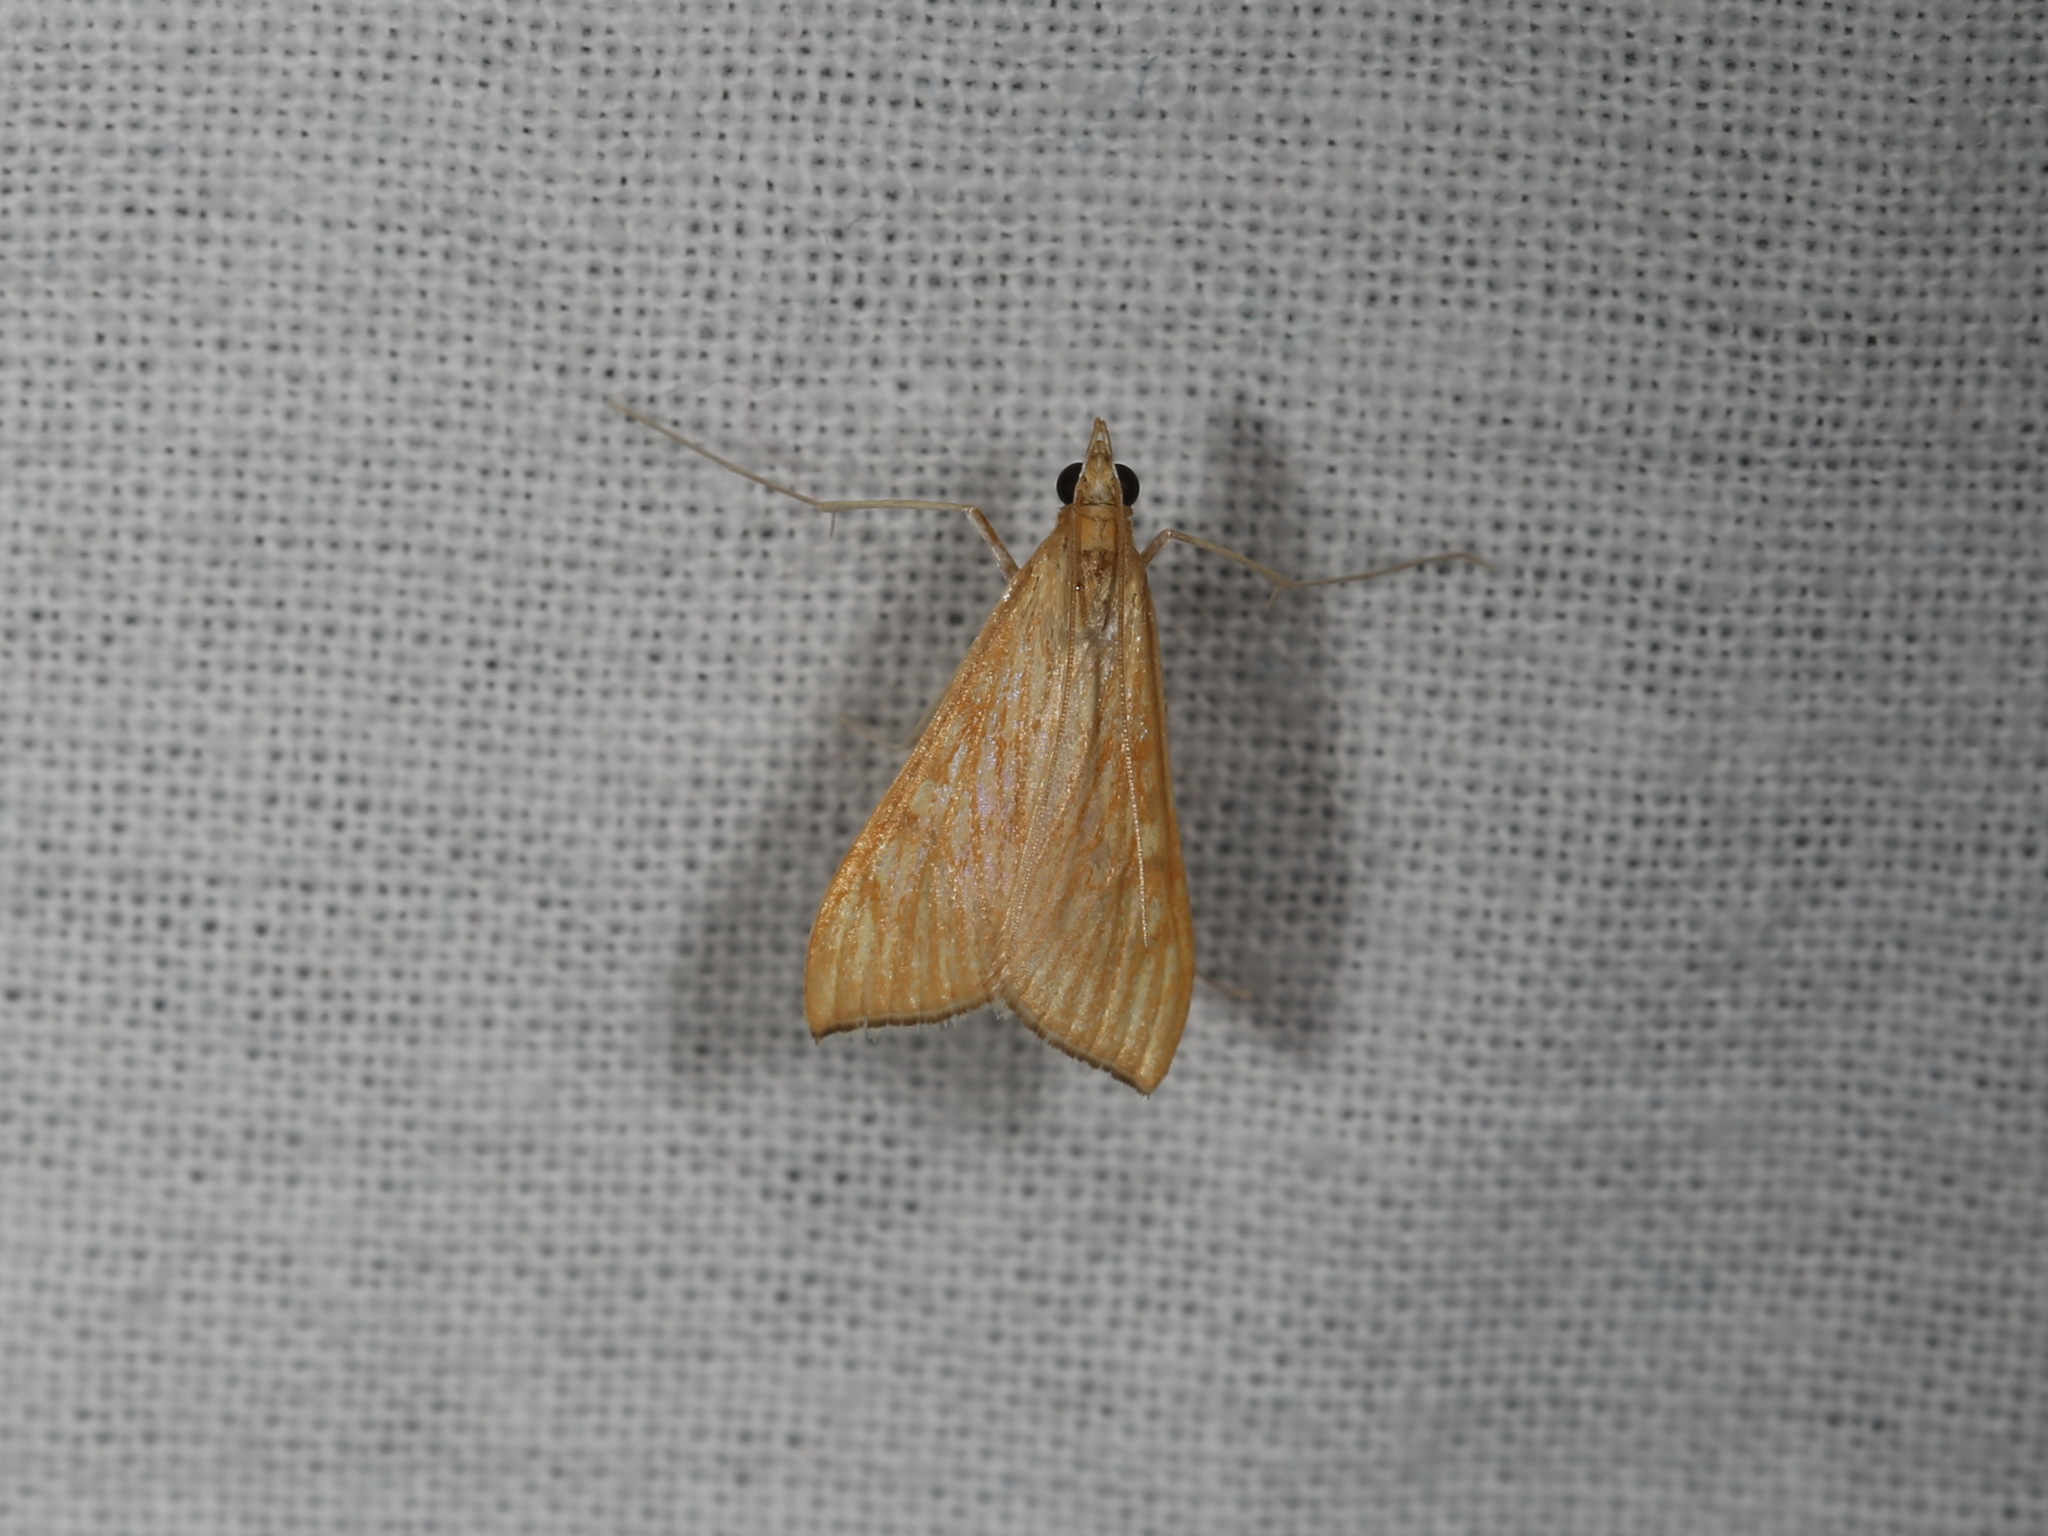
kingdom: Animalia
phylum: Arthropoda
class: Insecta
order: Lepidoptera
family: Crambidae
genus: Antigastra
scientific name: Antigastra catalaunalis
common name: Spanish dot
